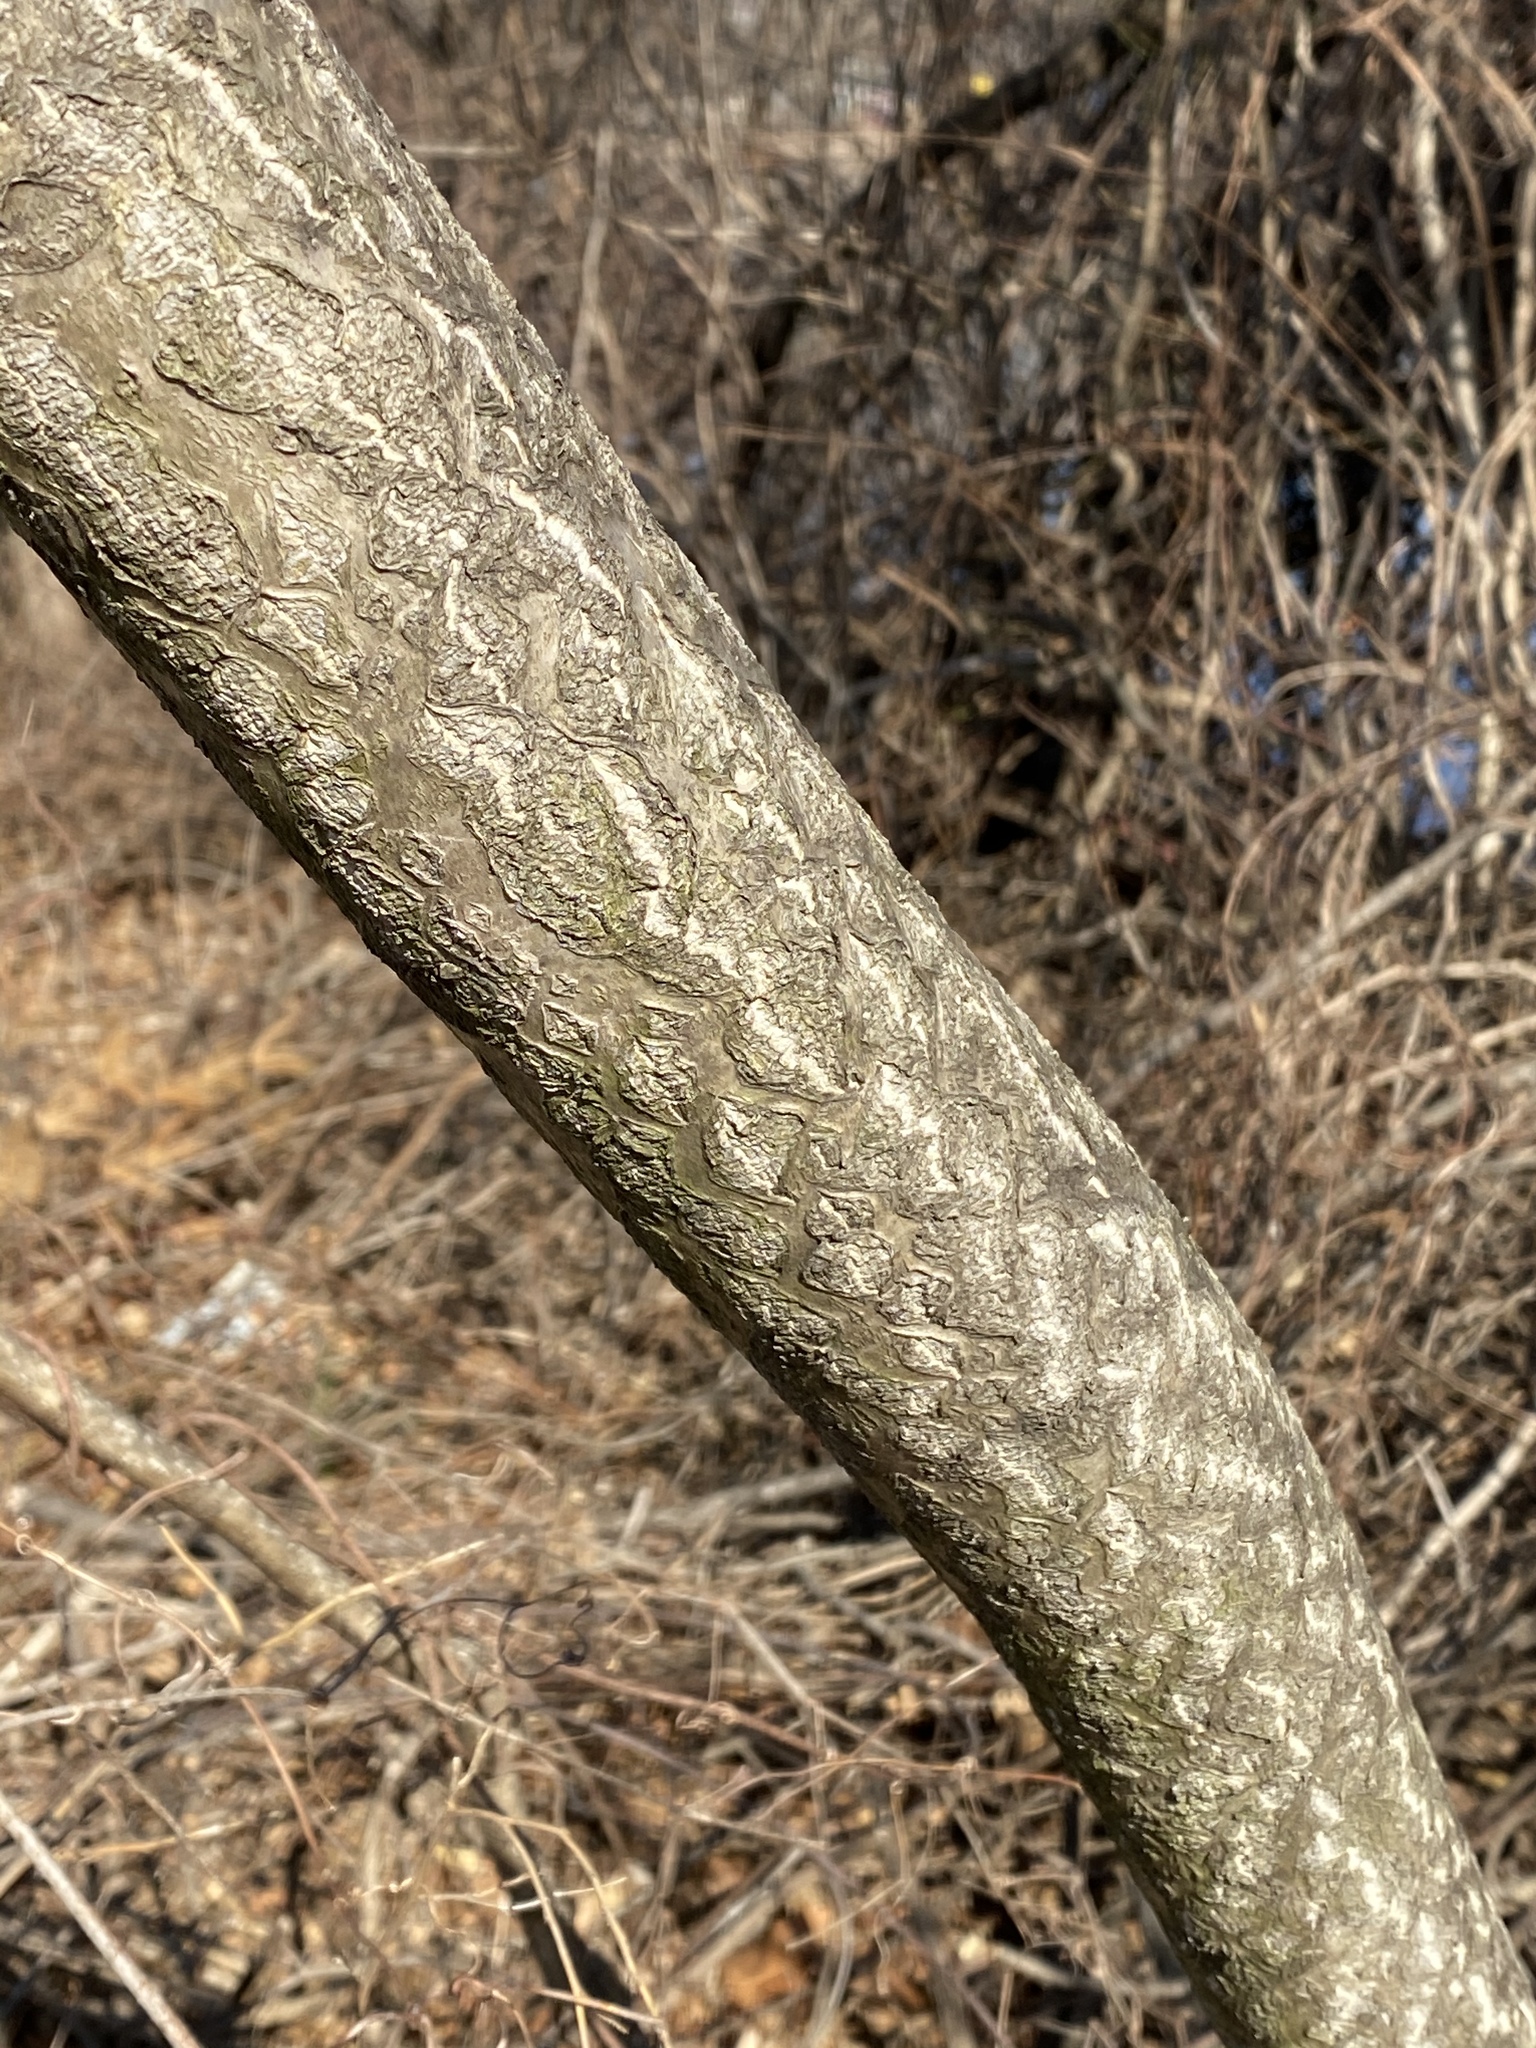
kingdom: Plantae
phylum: Tracheophyta
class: Magnoliopsida
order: Sapindales
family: Simaroubaceae
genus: Ailanthus
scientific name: Ailanthus altissima
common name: Tree-of-heaven
